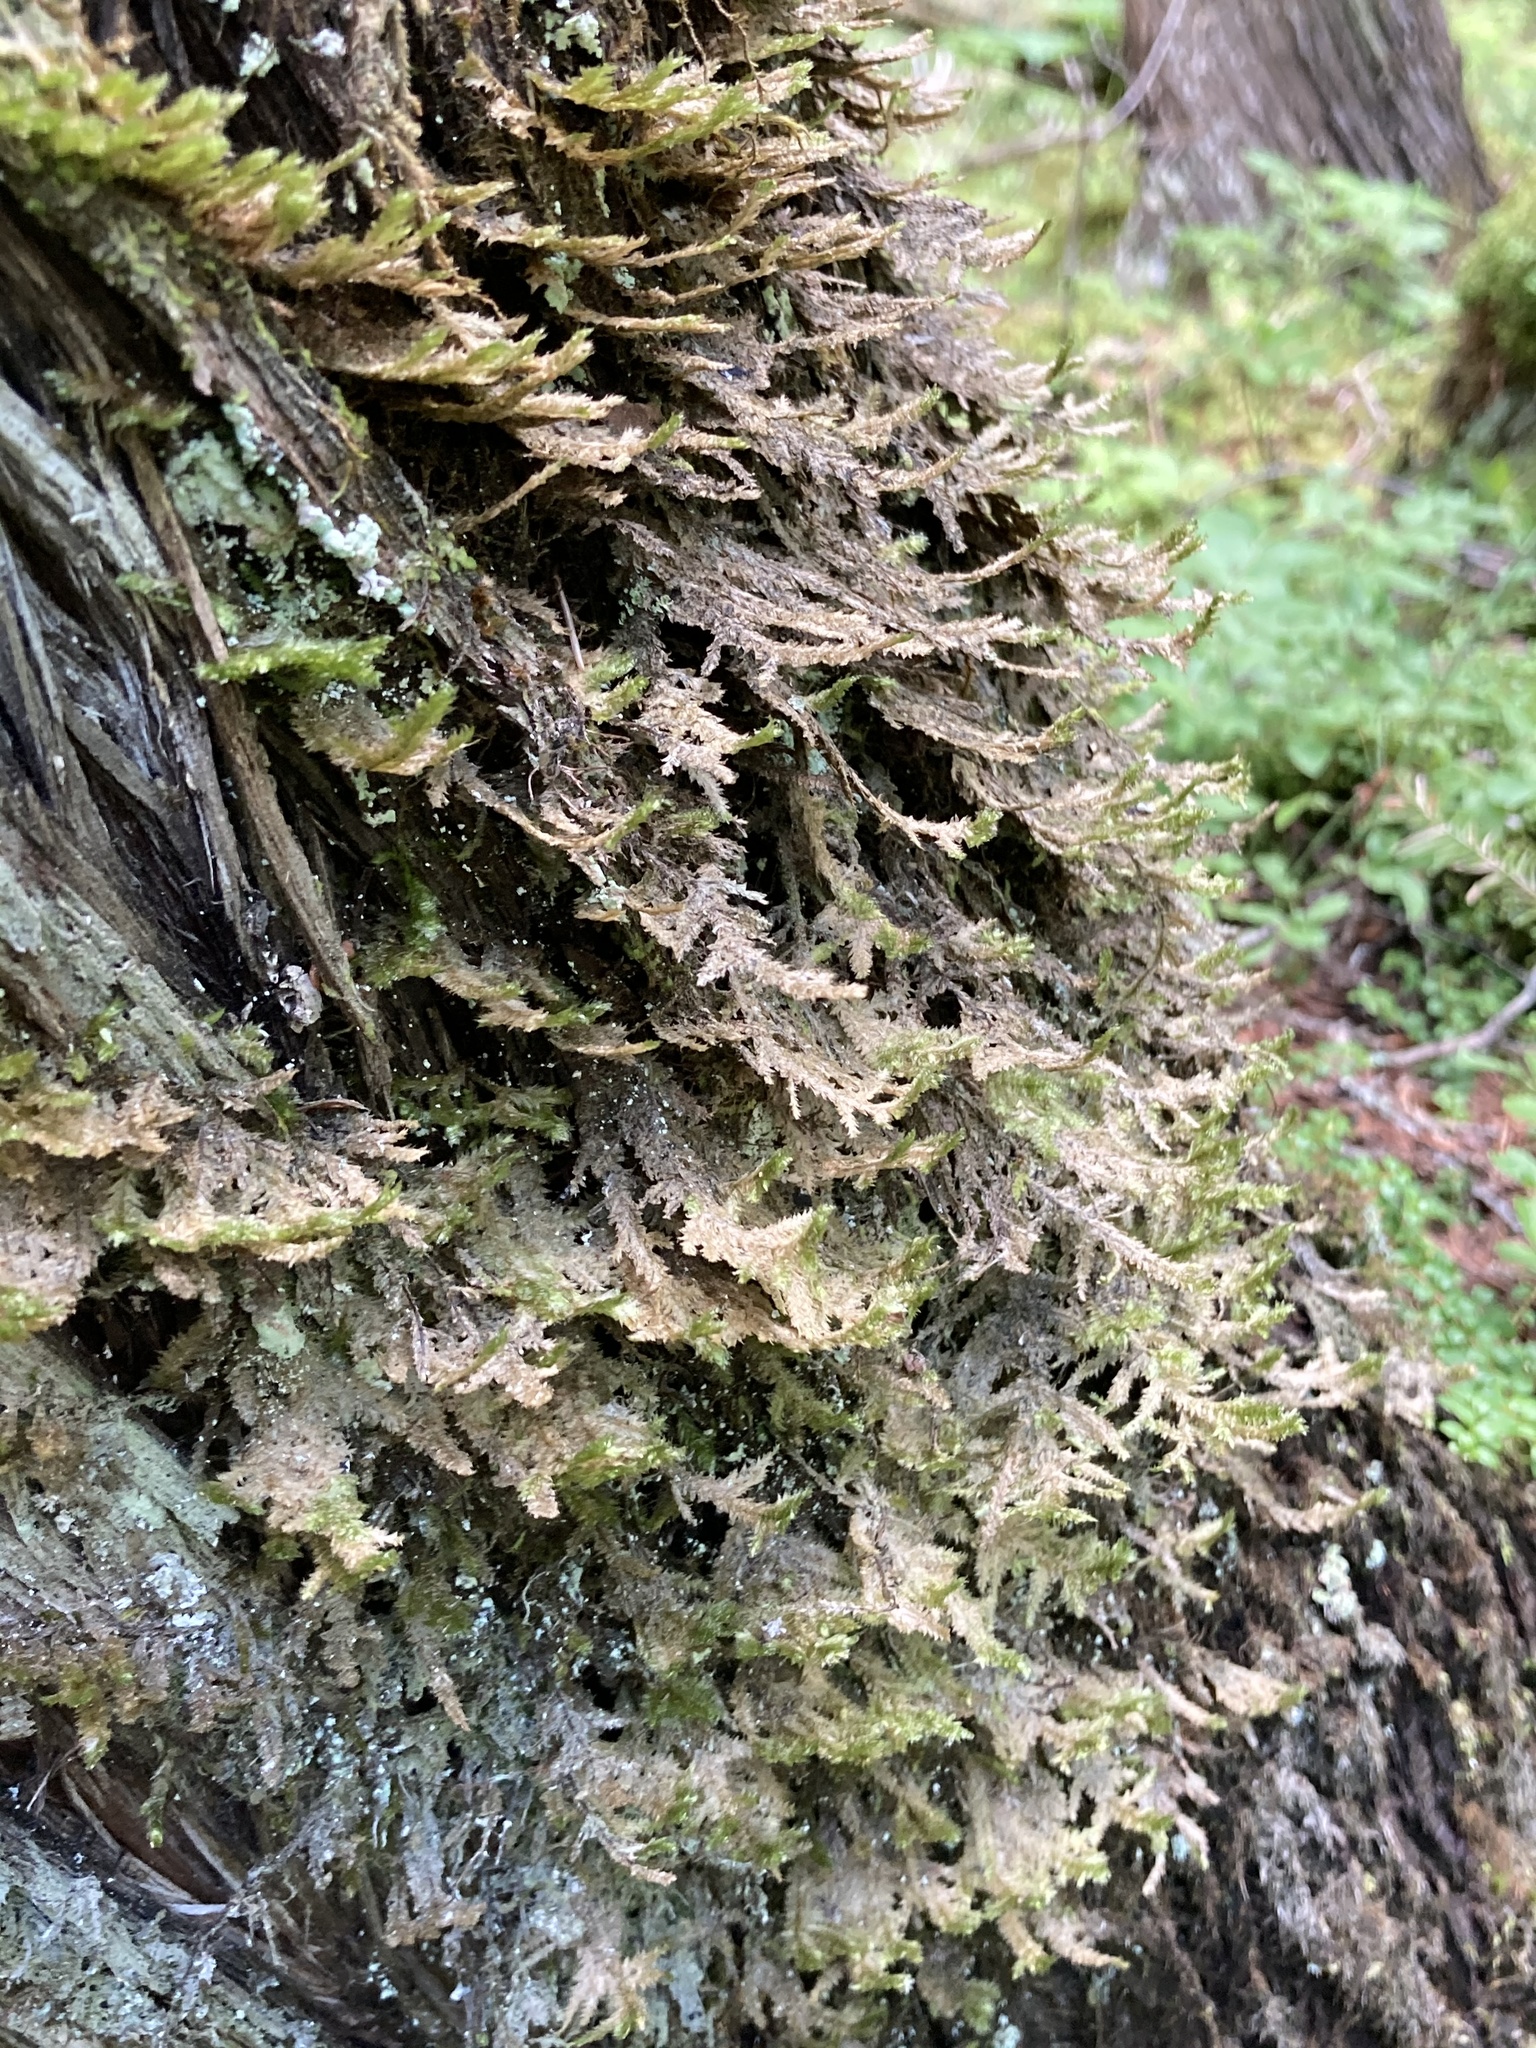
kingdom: Plantae
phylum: Bryophyta
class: Bryopsida
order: Hypnales
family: Neckeraceae
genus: Neckera
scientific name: Neckera pennata
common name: Feathery neckera
